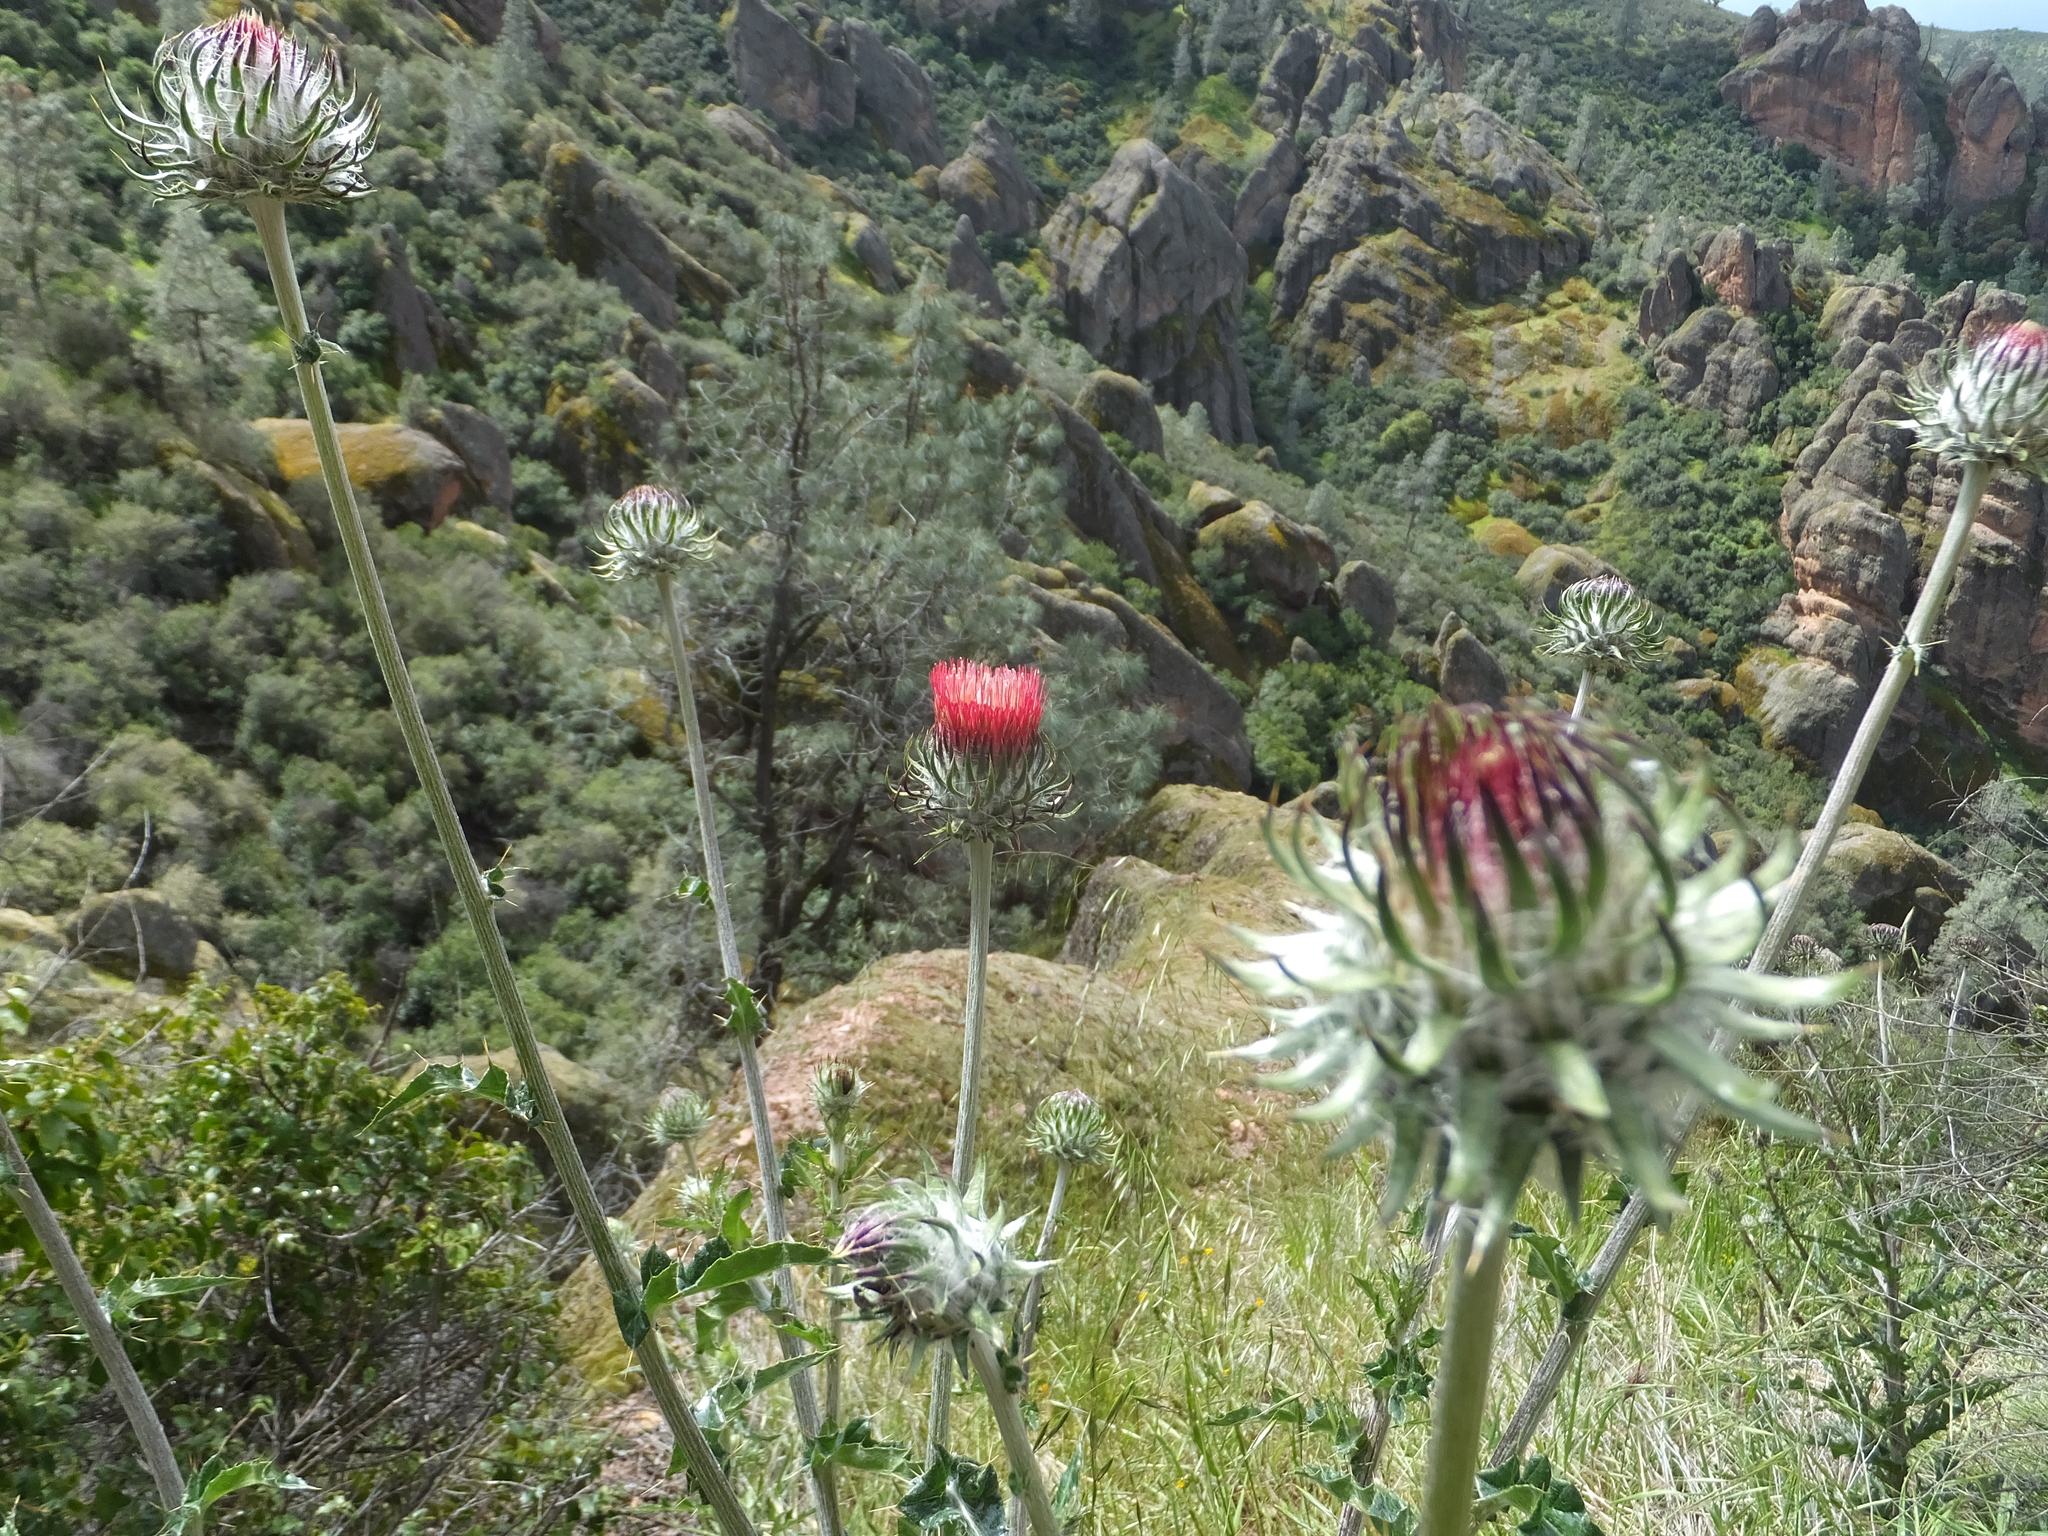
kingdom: Plantae
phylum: Tracheophyta
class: Magnoliopsida
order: Asterales
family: Asteraceae
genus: Cirsium
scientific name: Cirsium occidentale
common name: Western thistle
